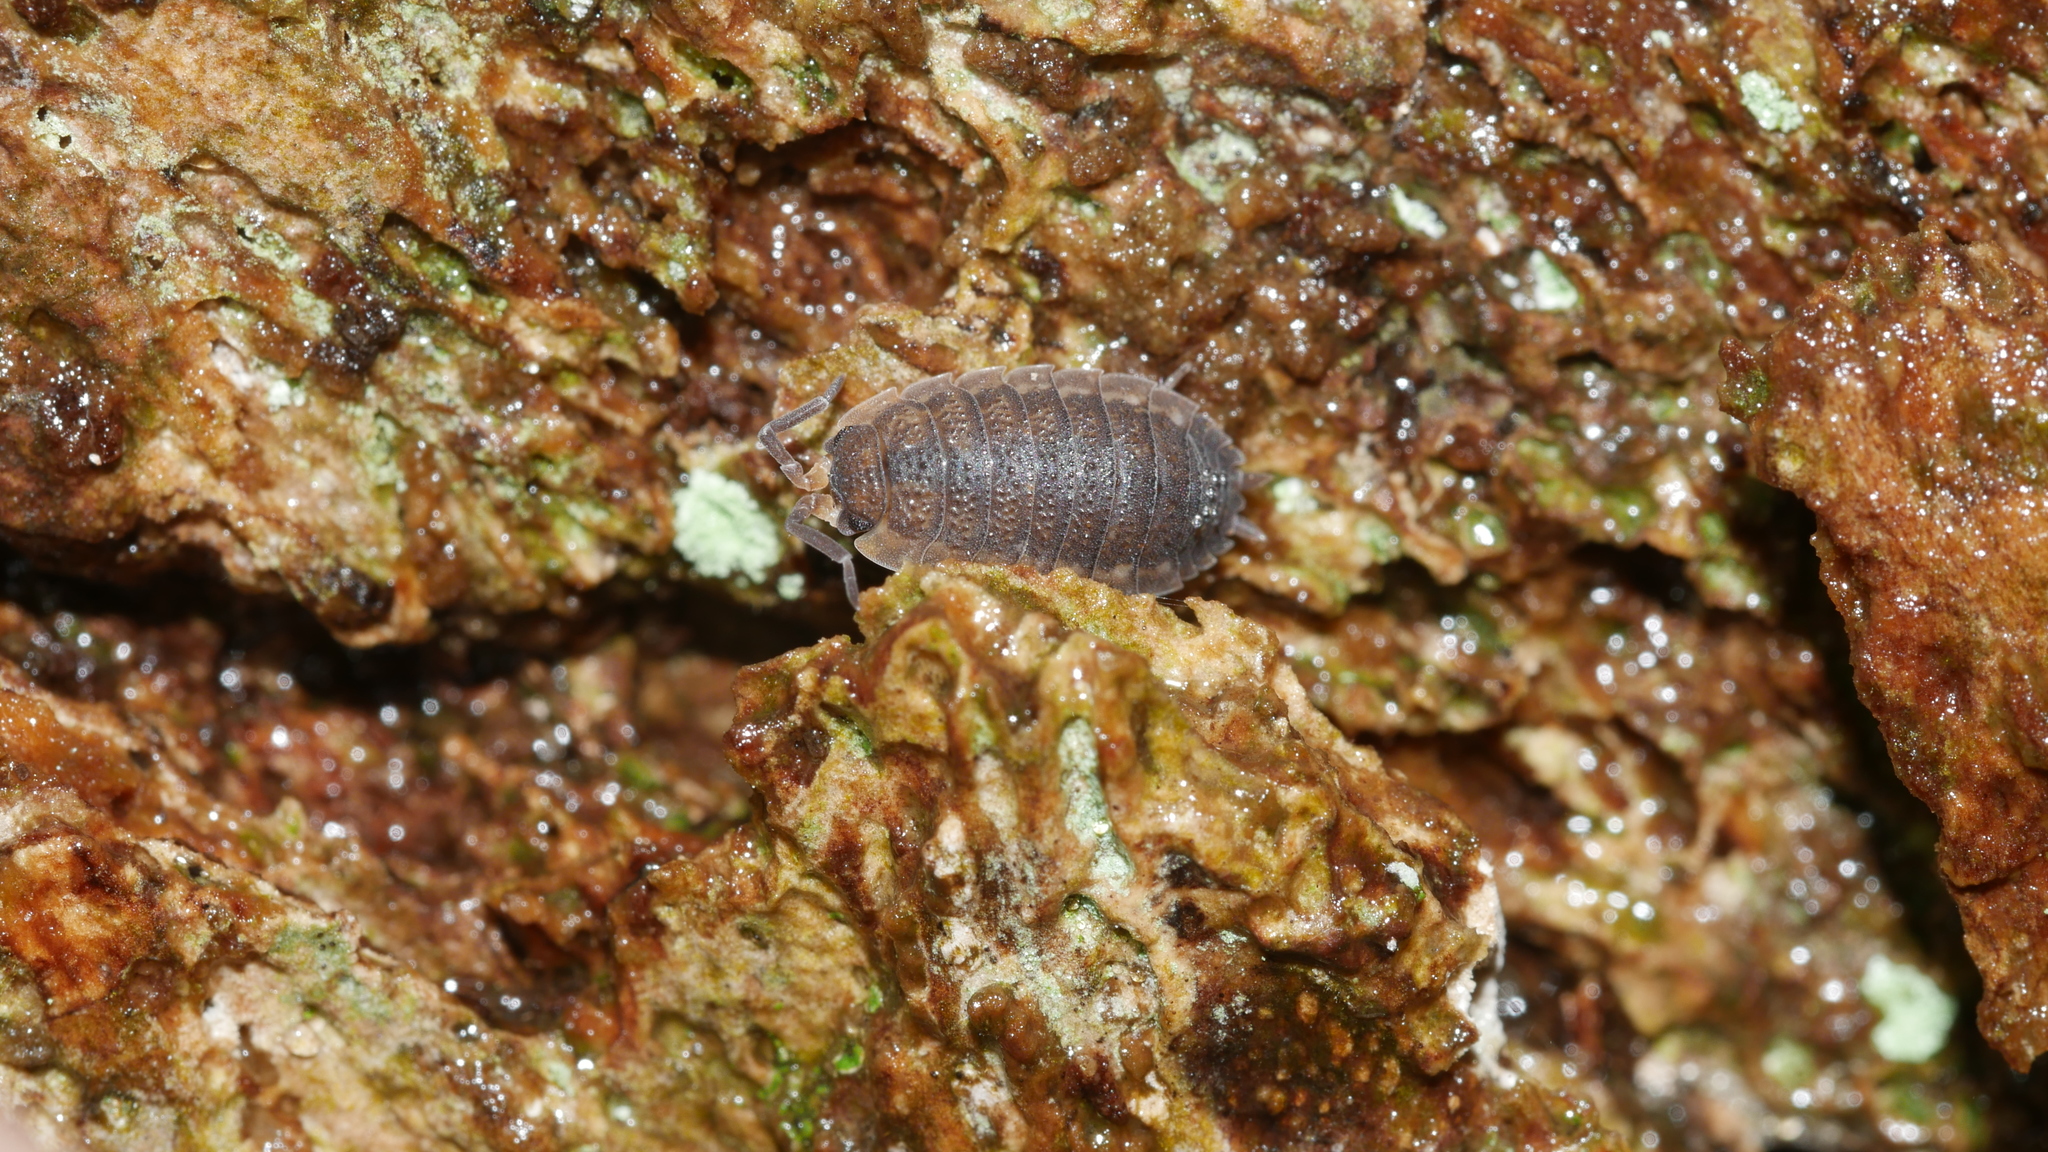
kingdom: Animalia
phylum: Arthropoda
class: Malacostraca
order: Isopoda
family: Porcellionidae
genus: Porcellio
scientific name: Porcellio scaber
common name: Common rough woodlouse
